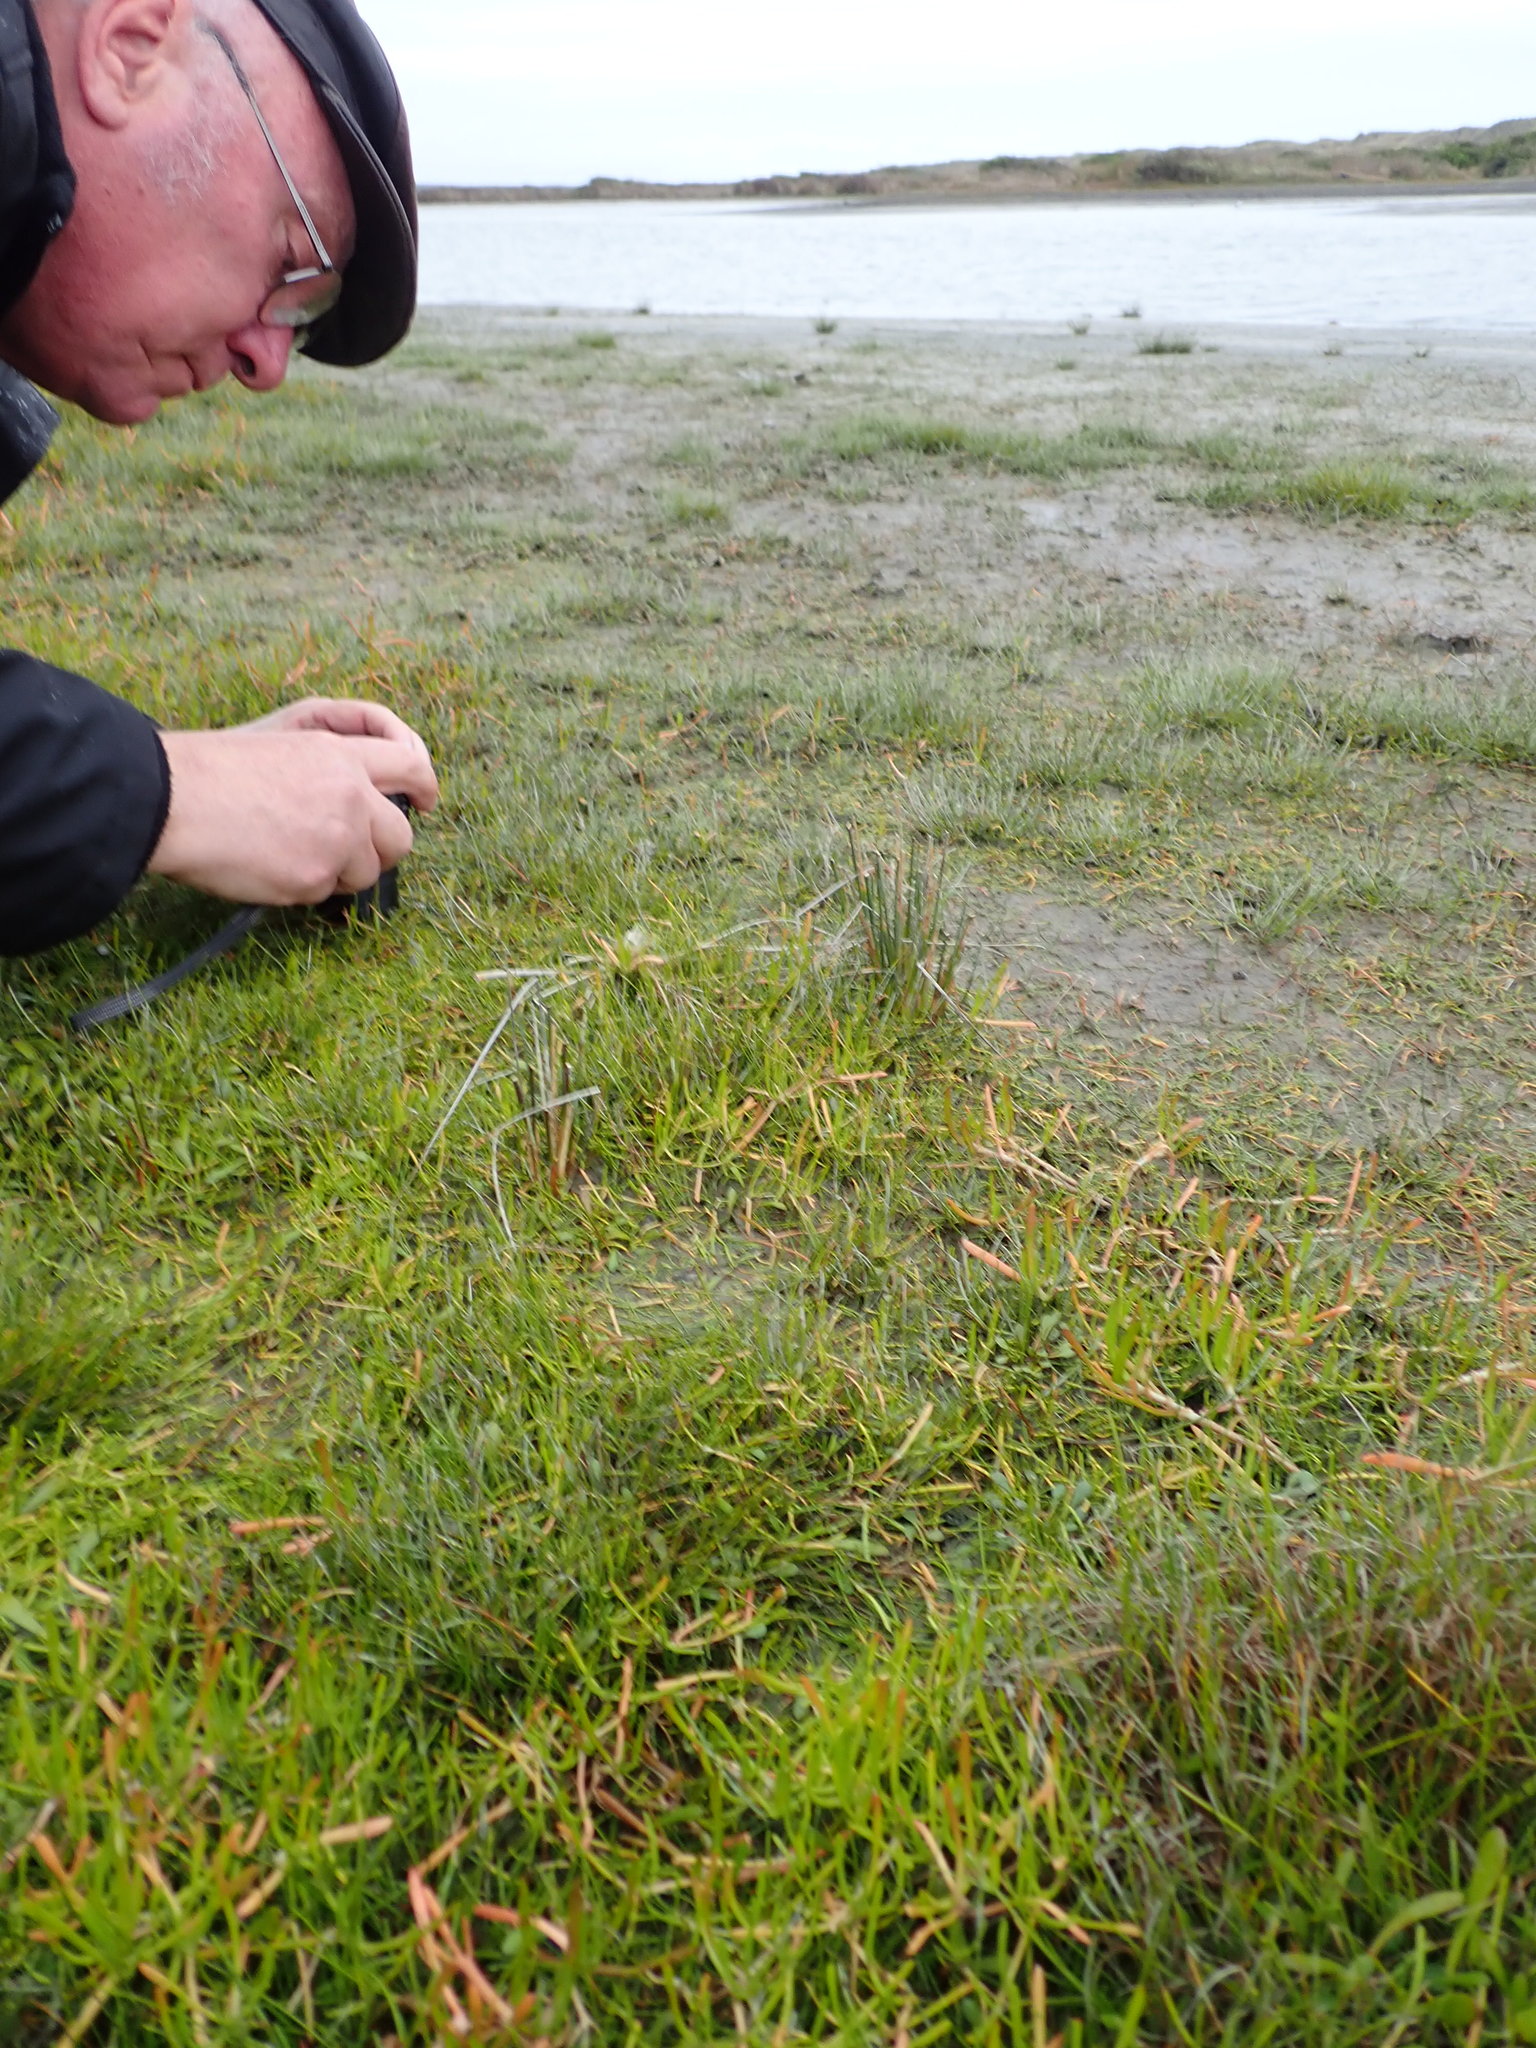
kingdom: Plantae
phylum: Tracheophyta
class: Magnoliopsida
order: Apiales
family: Apiaceae
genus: Lilaeopsis
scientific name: Lilaeopsis novae-zelandiae
